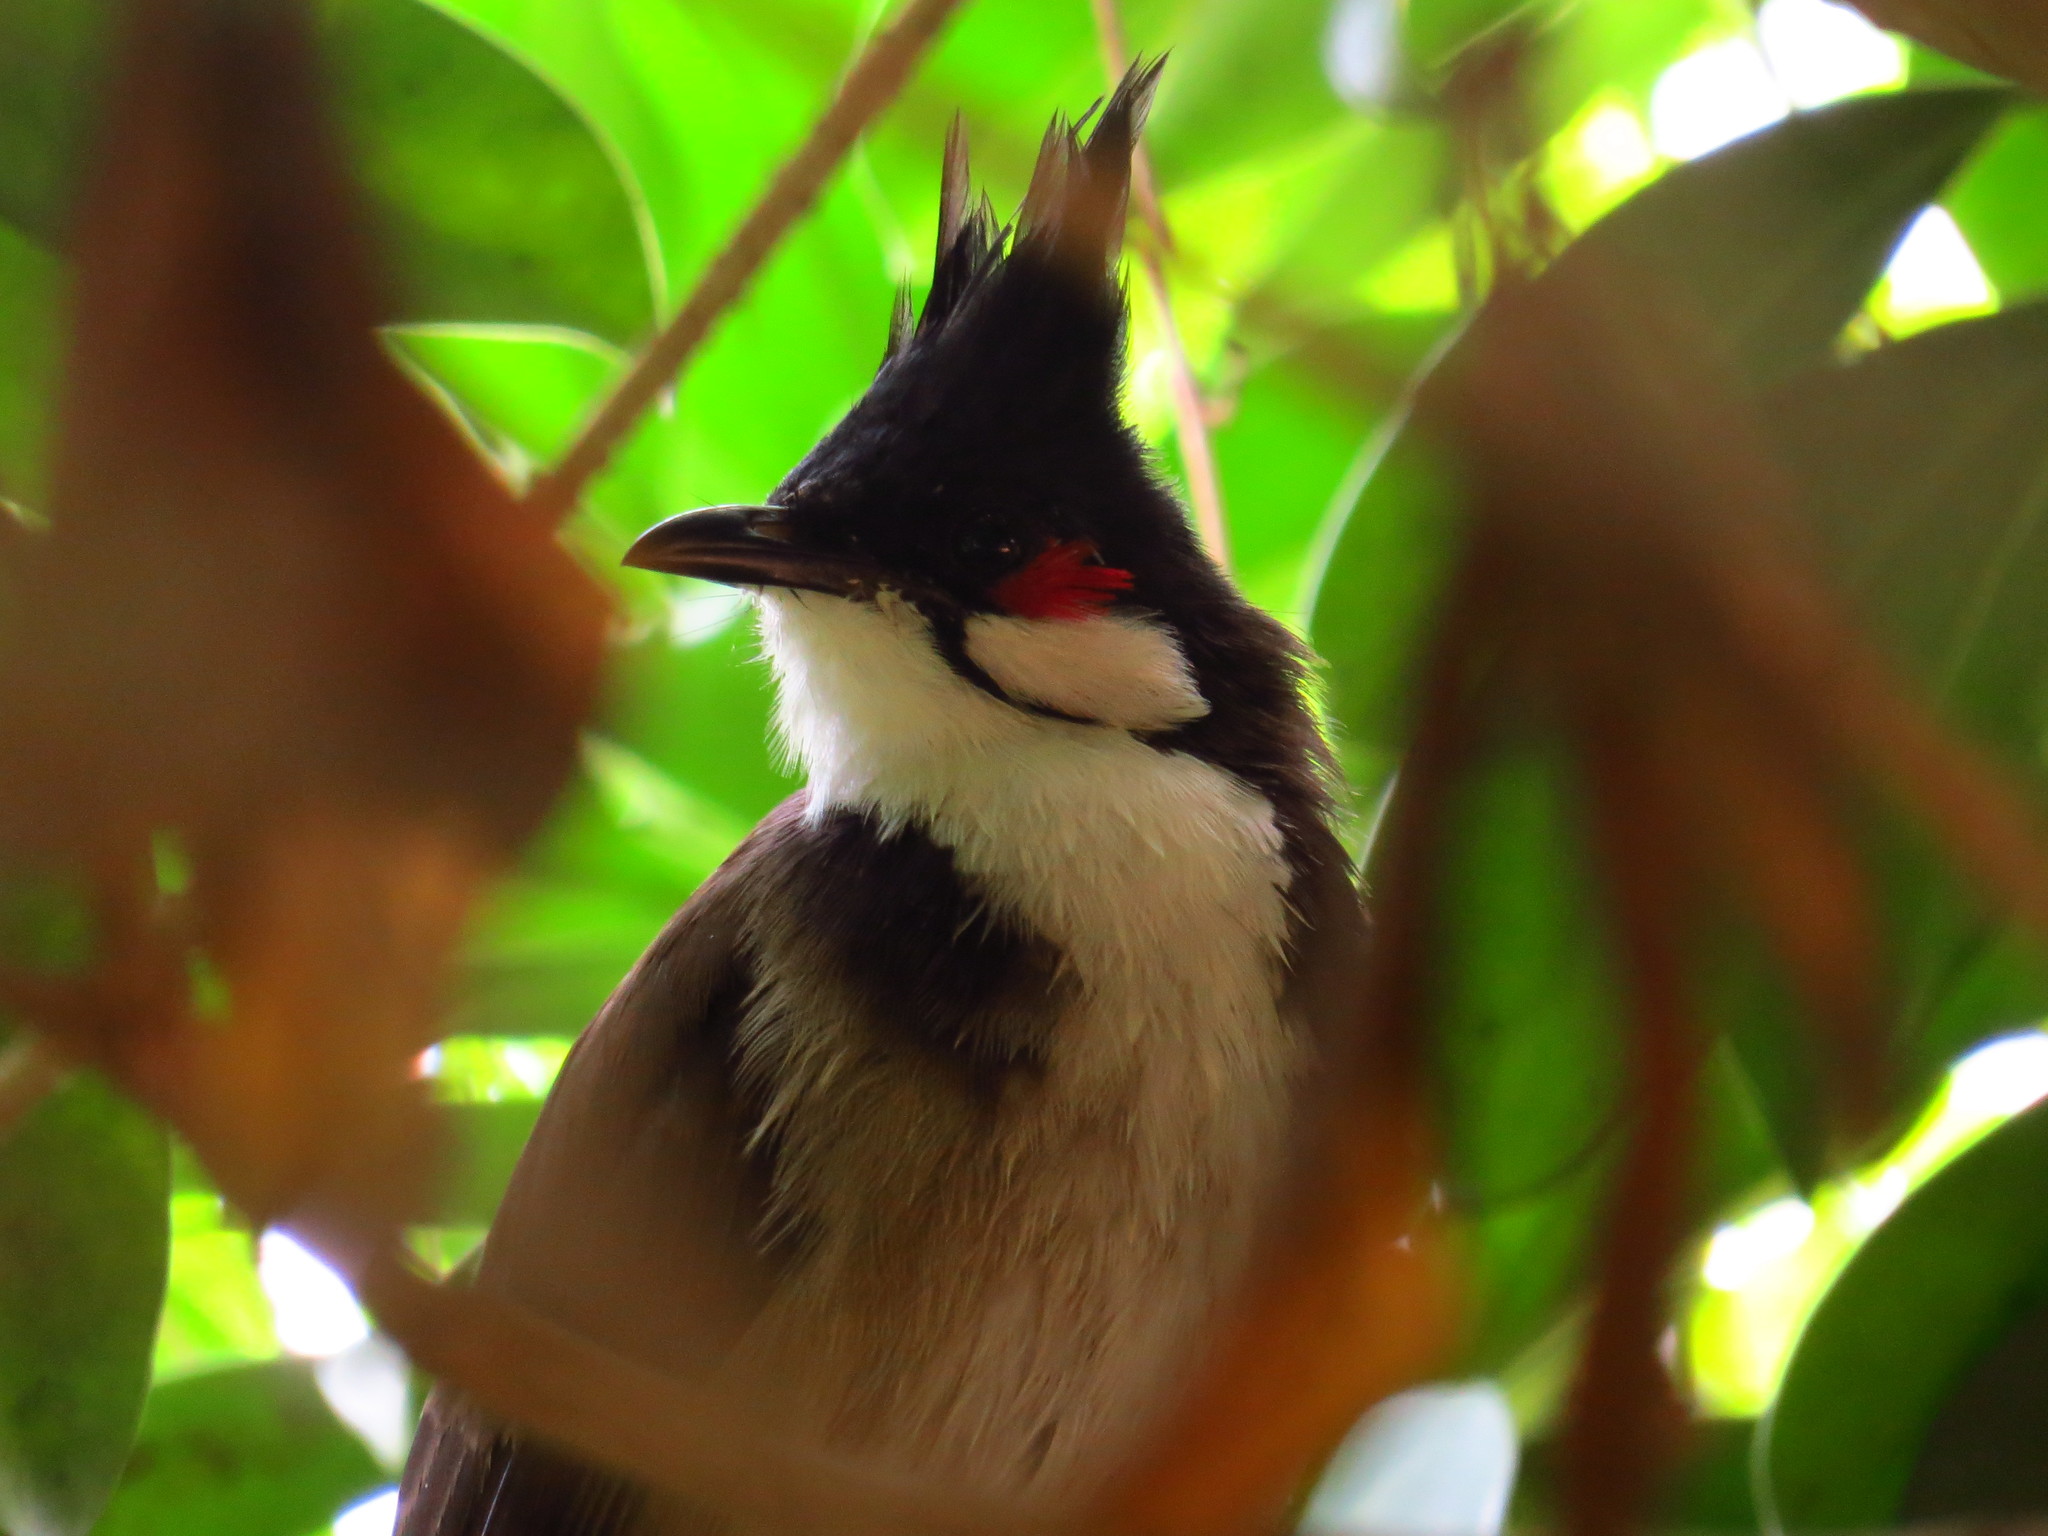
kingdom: Animalia
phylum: Chordata
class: Aves
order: Passeriformes
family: Pycnonotidae
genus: Pycnonotus
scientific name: Pycnonotus jocosus
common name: Red-whiskered bulbul
